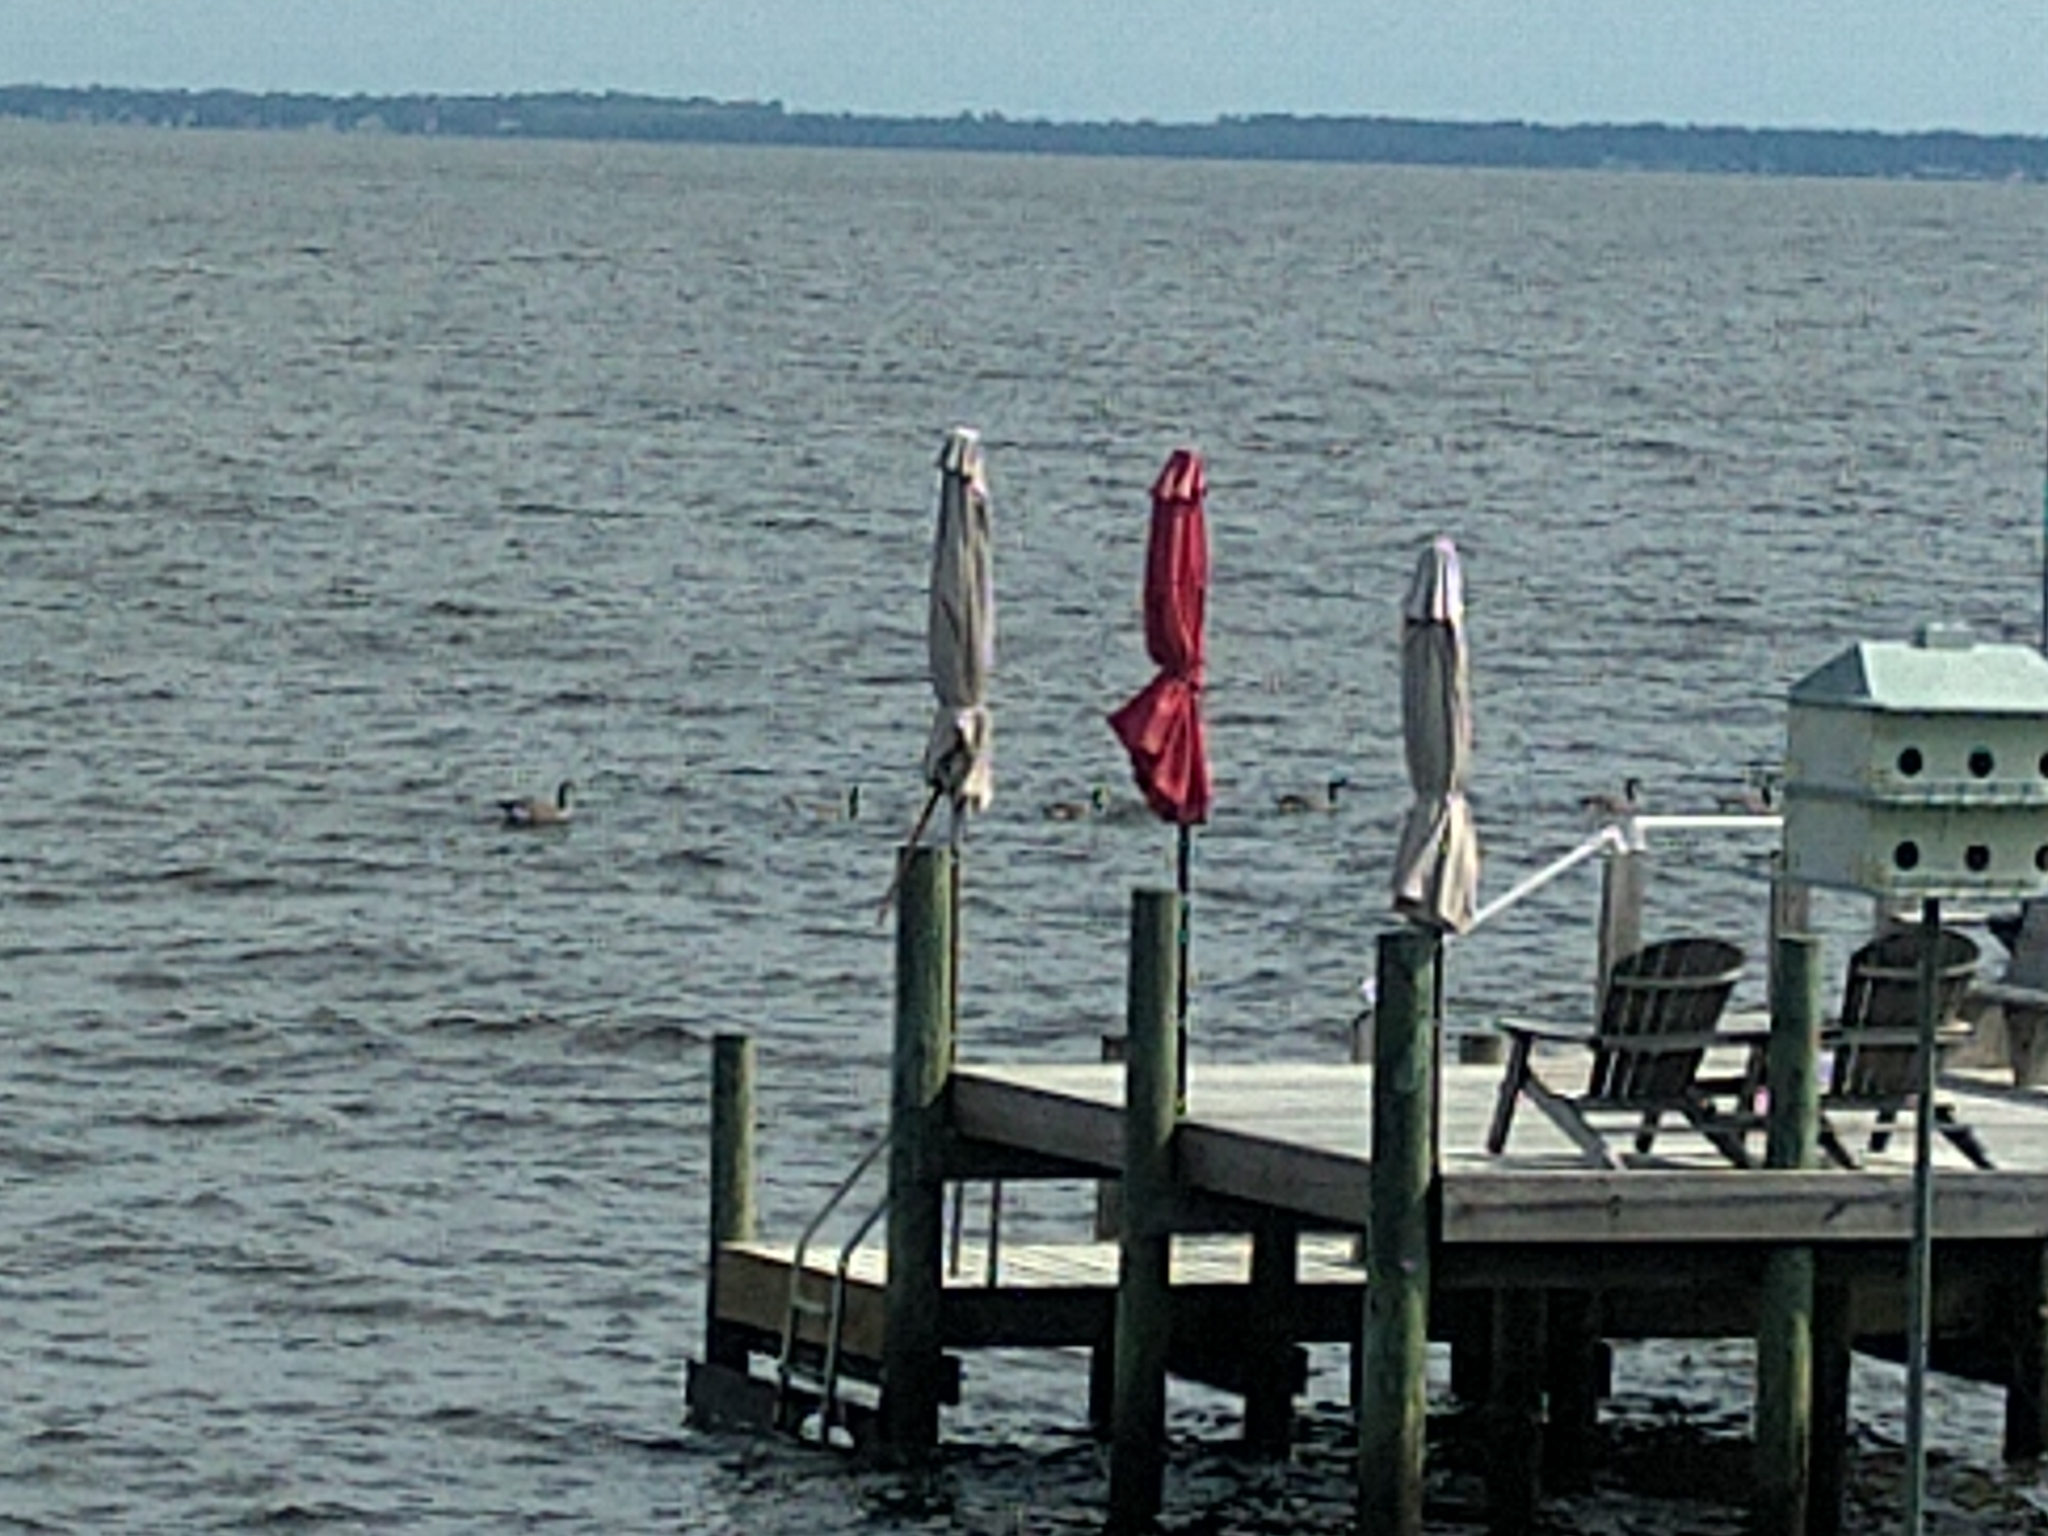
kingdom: Animalia
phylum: Chordata
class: Aves
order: Anseriformes
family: Anatidae
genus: Branta
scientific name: Branta canadensis
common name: Canada goose
